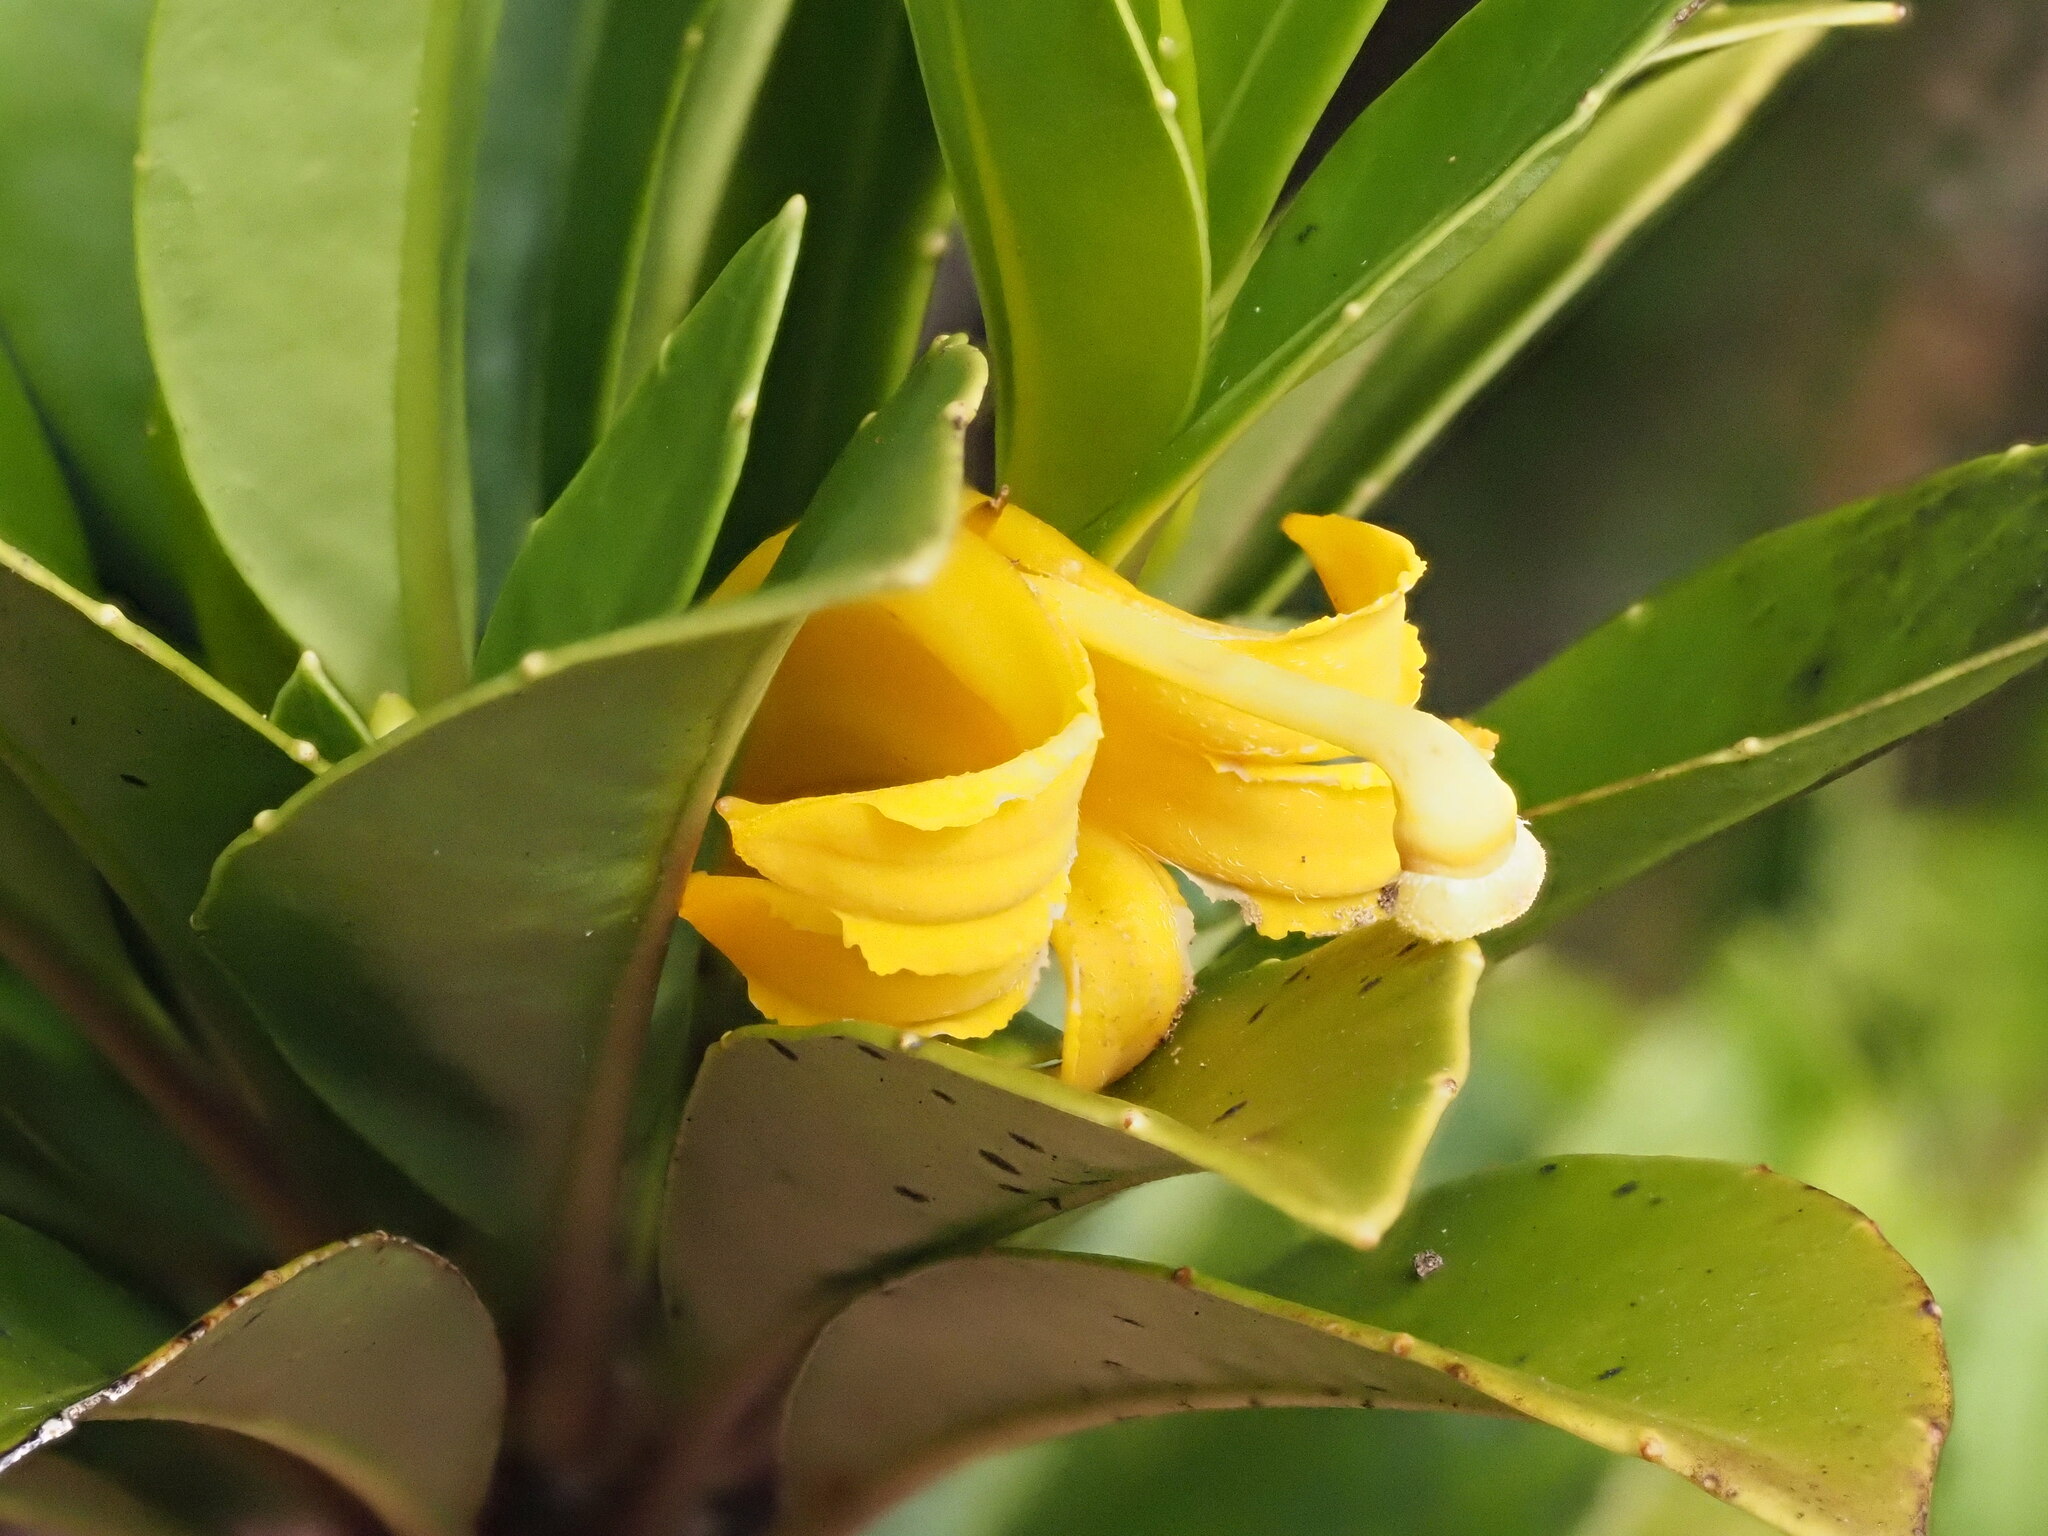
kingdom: Plantae
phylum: Tracheophyta
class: Magnoliopsida
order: Asterales
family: Goodeniaceae
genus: Scaevola
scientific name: Scaevola glabra
